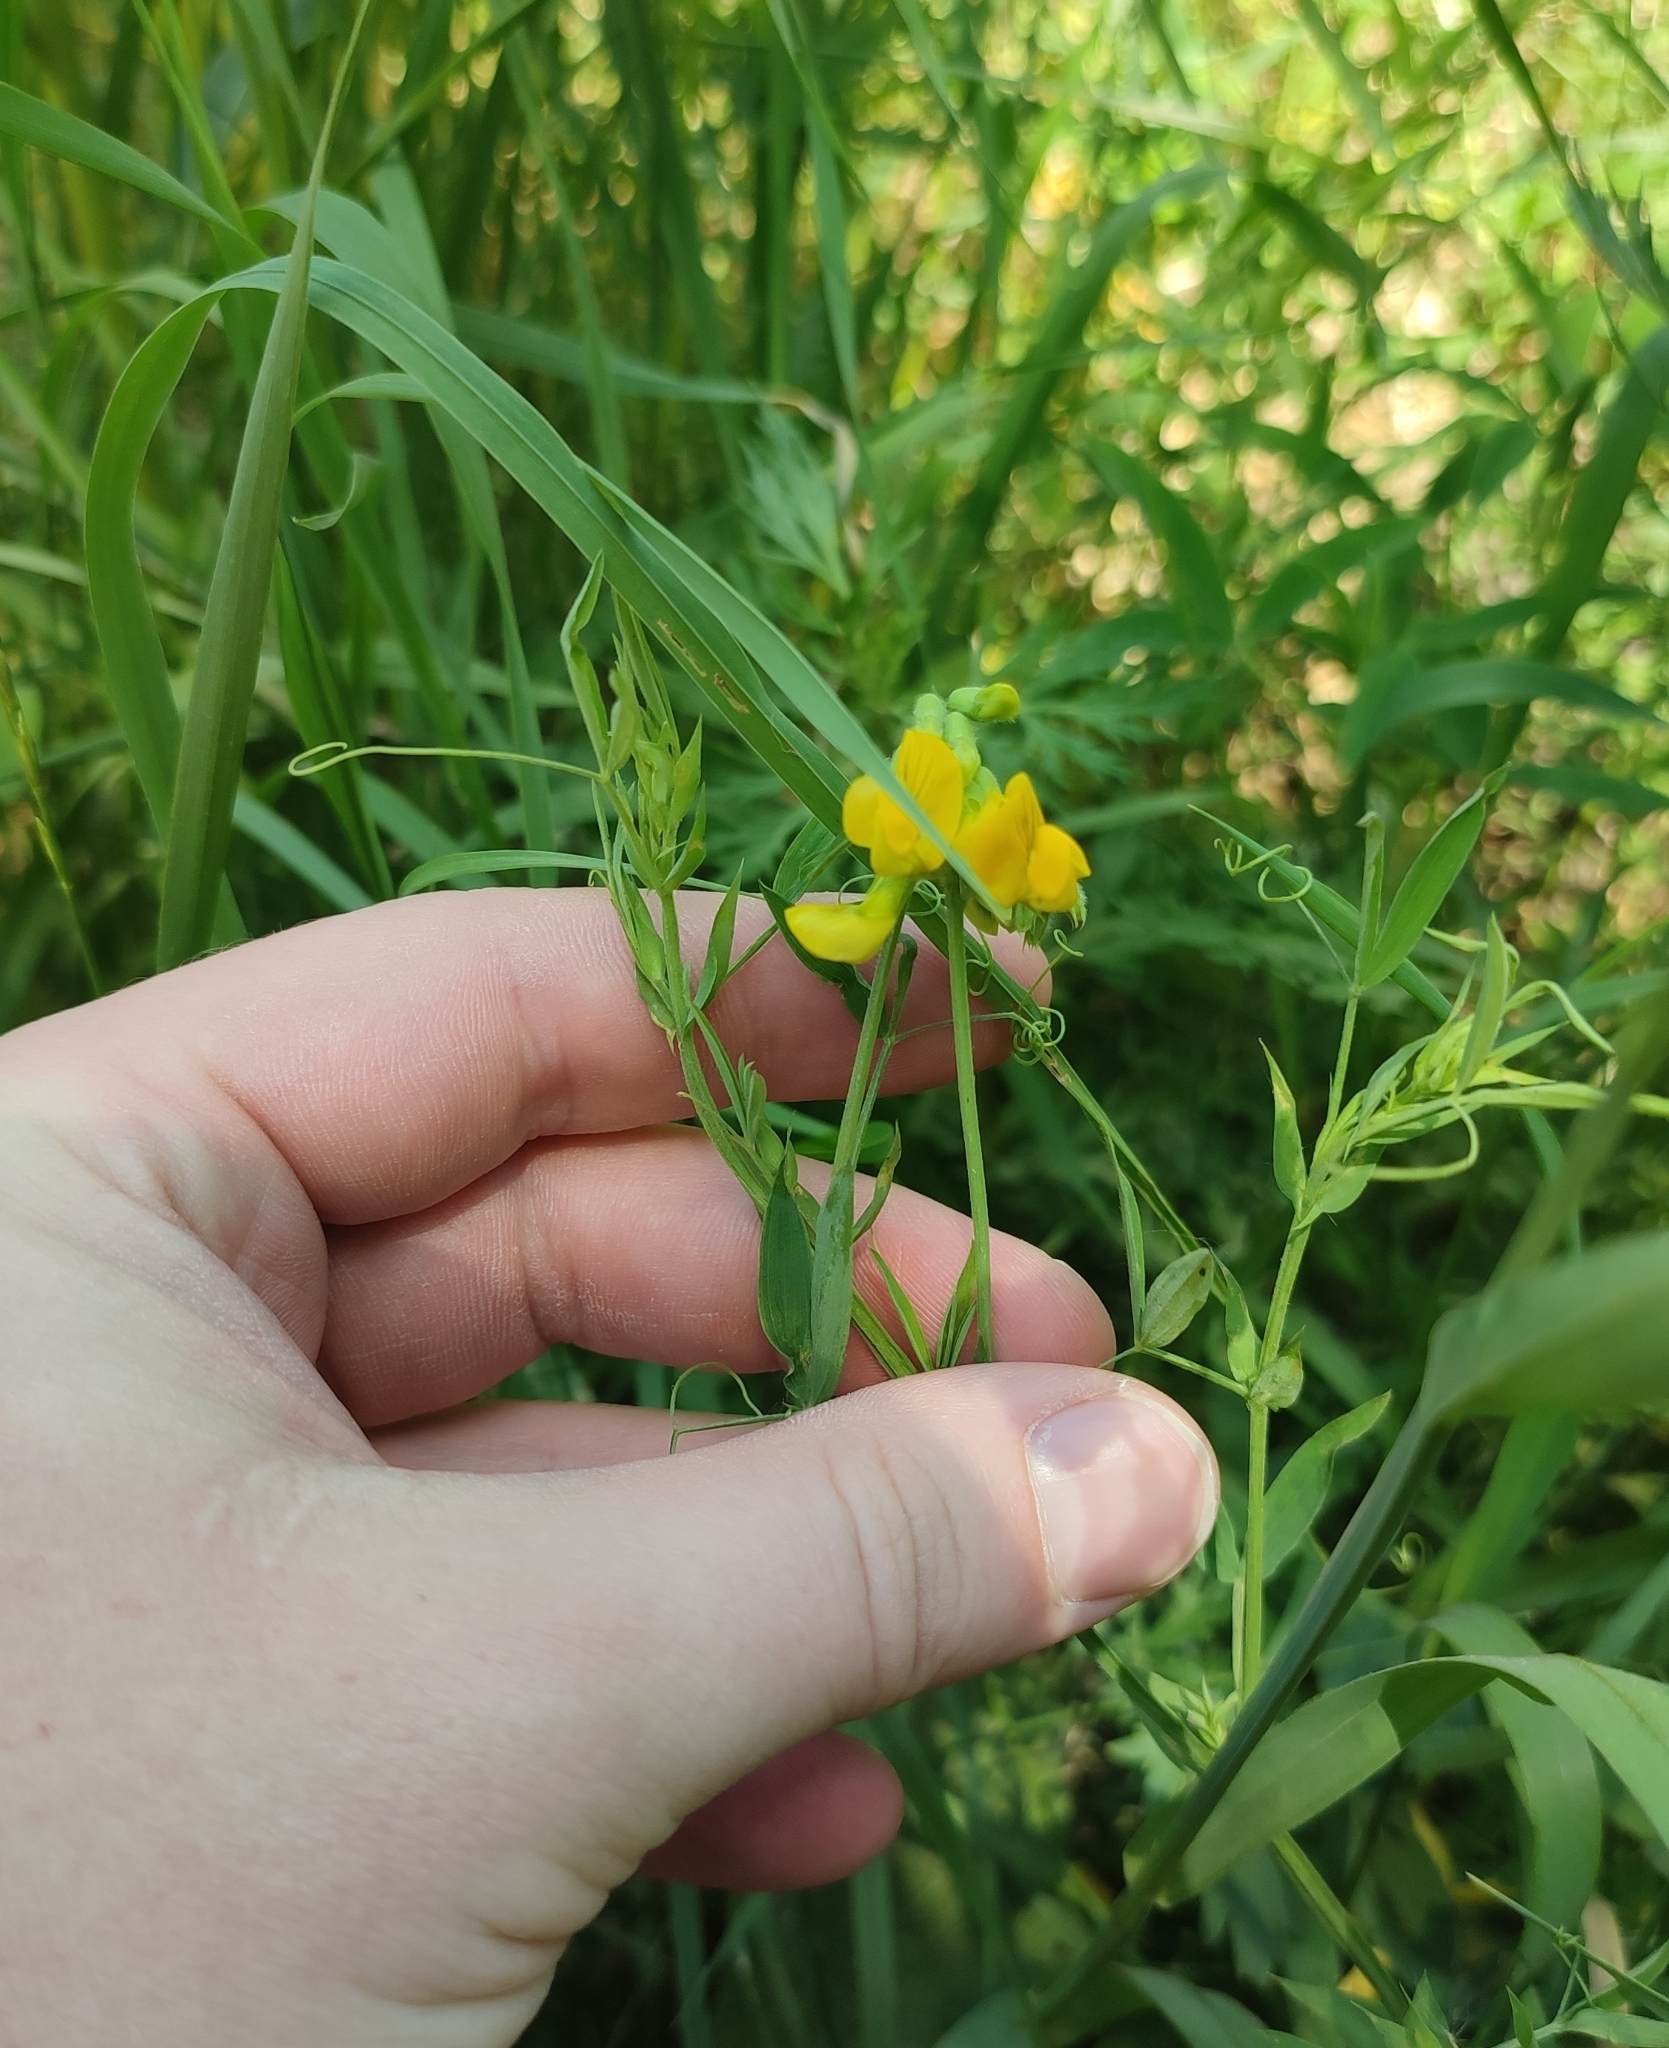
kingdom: Plantae
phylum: Tracheophyta
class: Magnoliopsida
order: Fabales
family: Fabaceae
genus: Lathyrus
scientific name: Lathyrus pratensis
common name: Meadow vetchling
